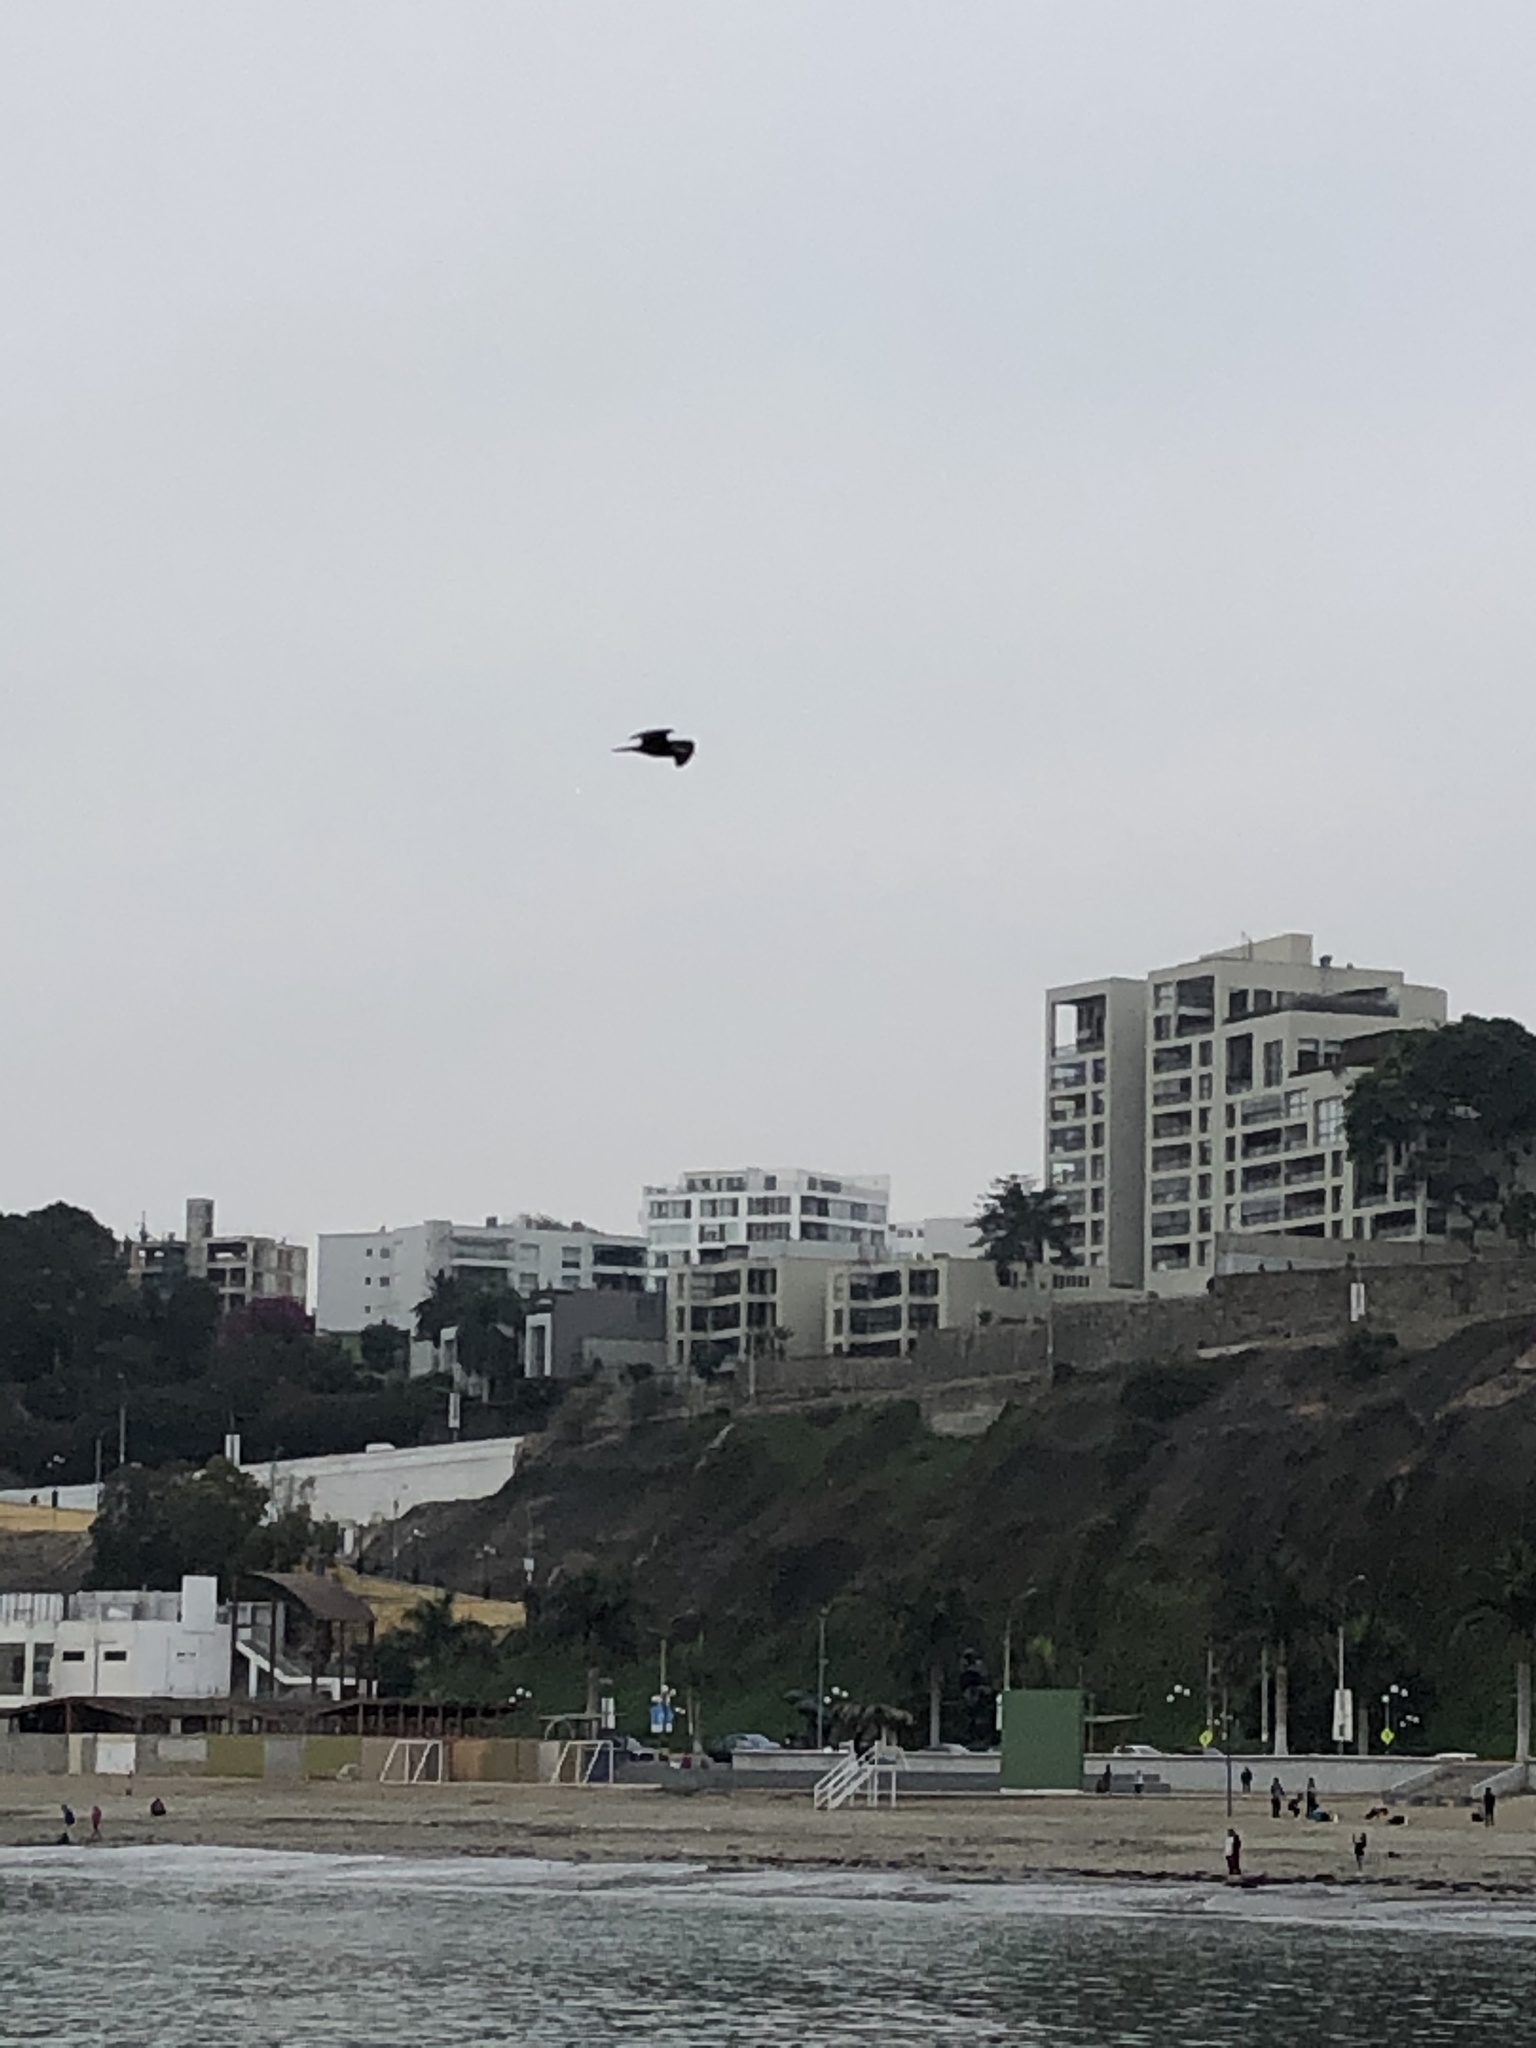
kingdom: Animalia
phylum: Chordata
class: Aves
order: Charadriiformes
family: Laridae
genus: Larus
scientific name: Larus belcheri
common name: Belcher's gull
